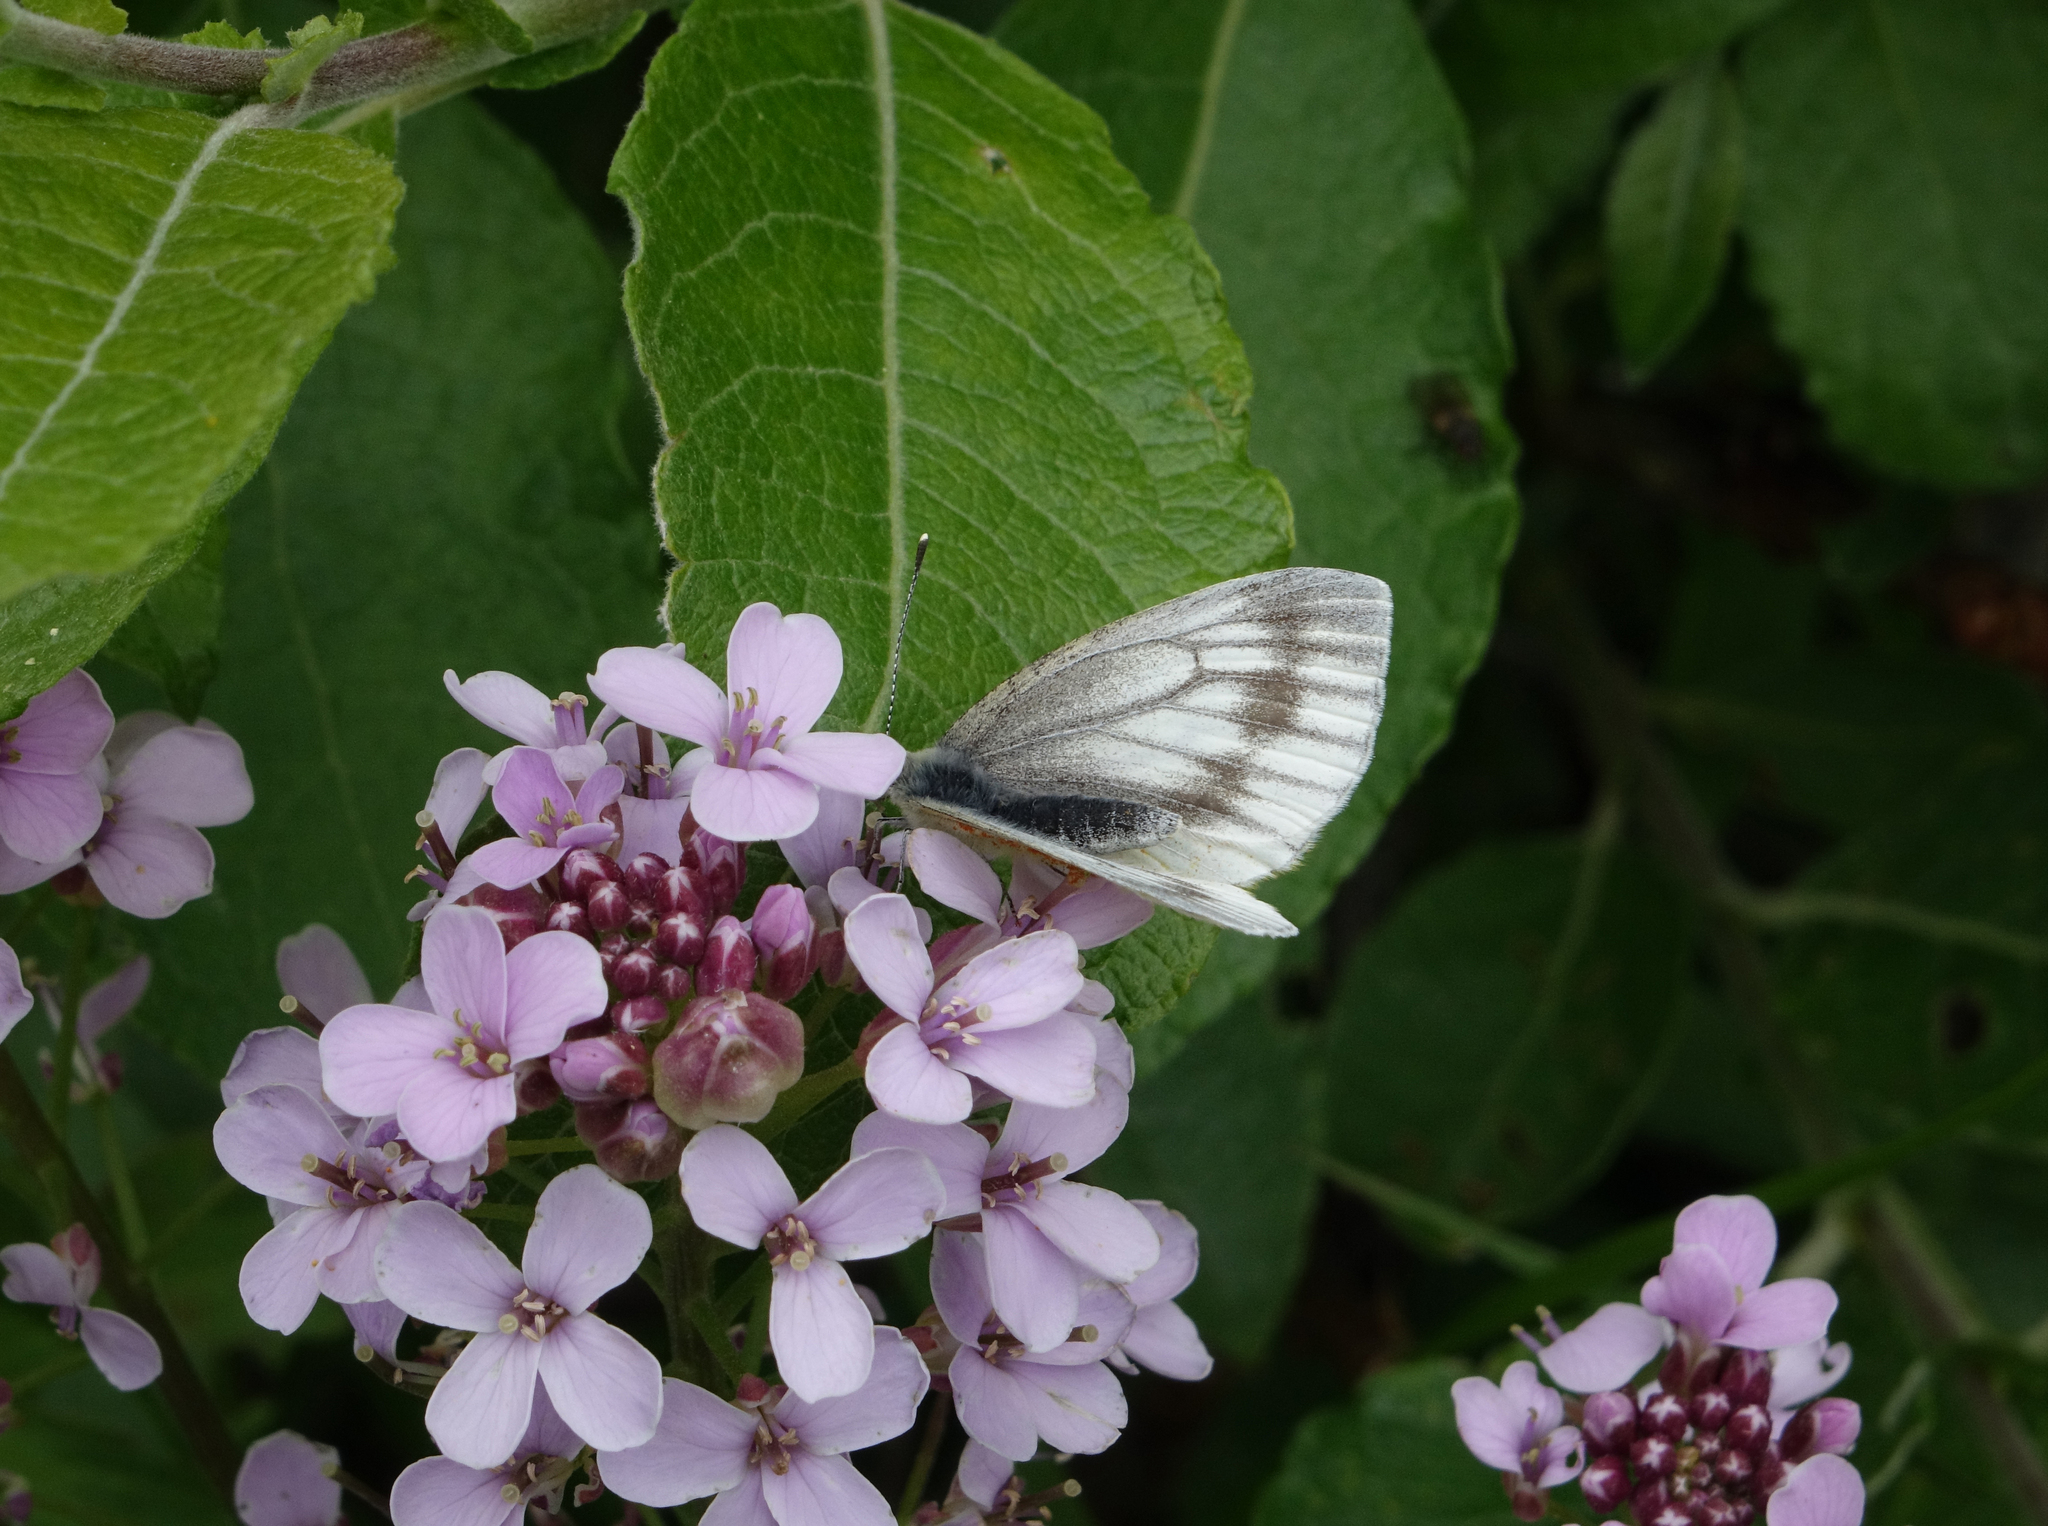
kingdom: Plantae
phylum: Tracheophyta
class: Magnoliopsida
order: Brassicales
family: Brassicaceae
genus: Cardamine
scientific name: Cardamine macrophylla
